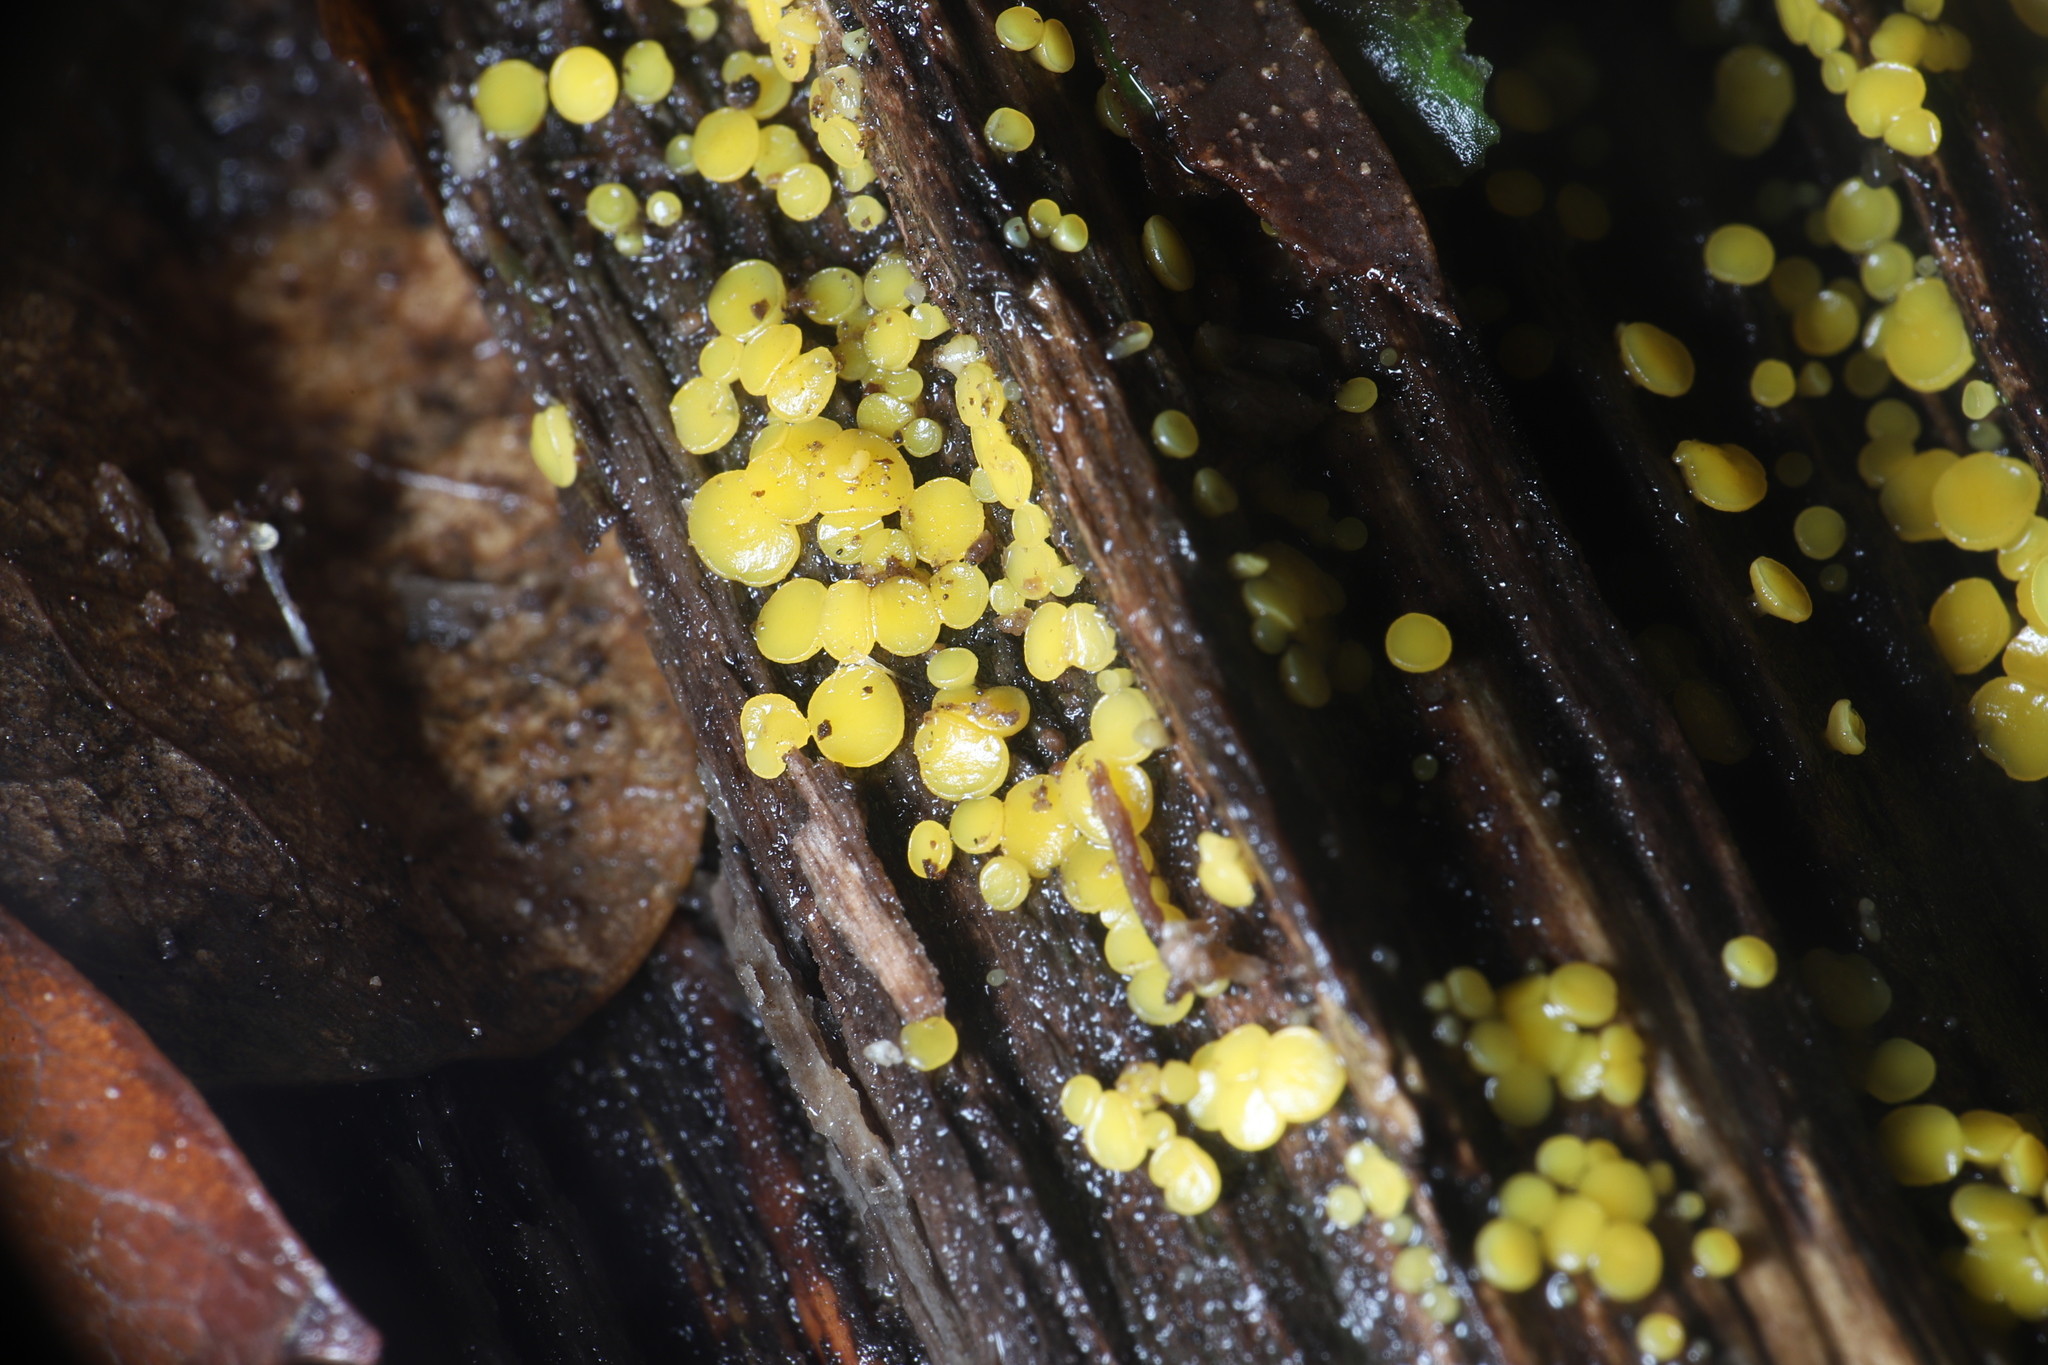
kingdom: Fungi
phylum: Ascomycota
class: Leotiomycetes
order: Helotiales
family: Pezizellaceae
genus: Calycina
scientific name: Calycina citrina
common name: Yellow fairy cups
